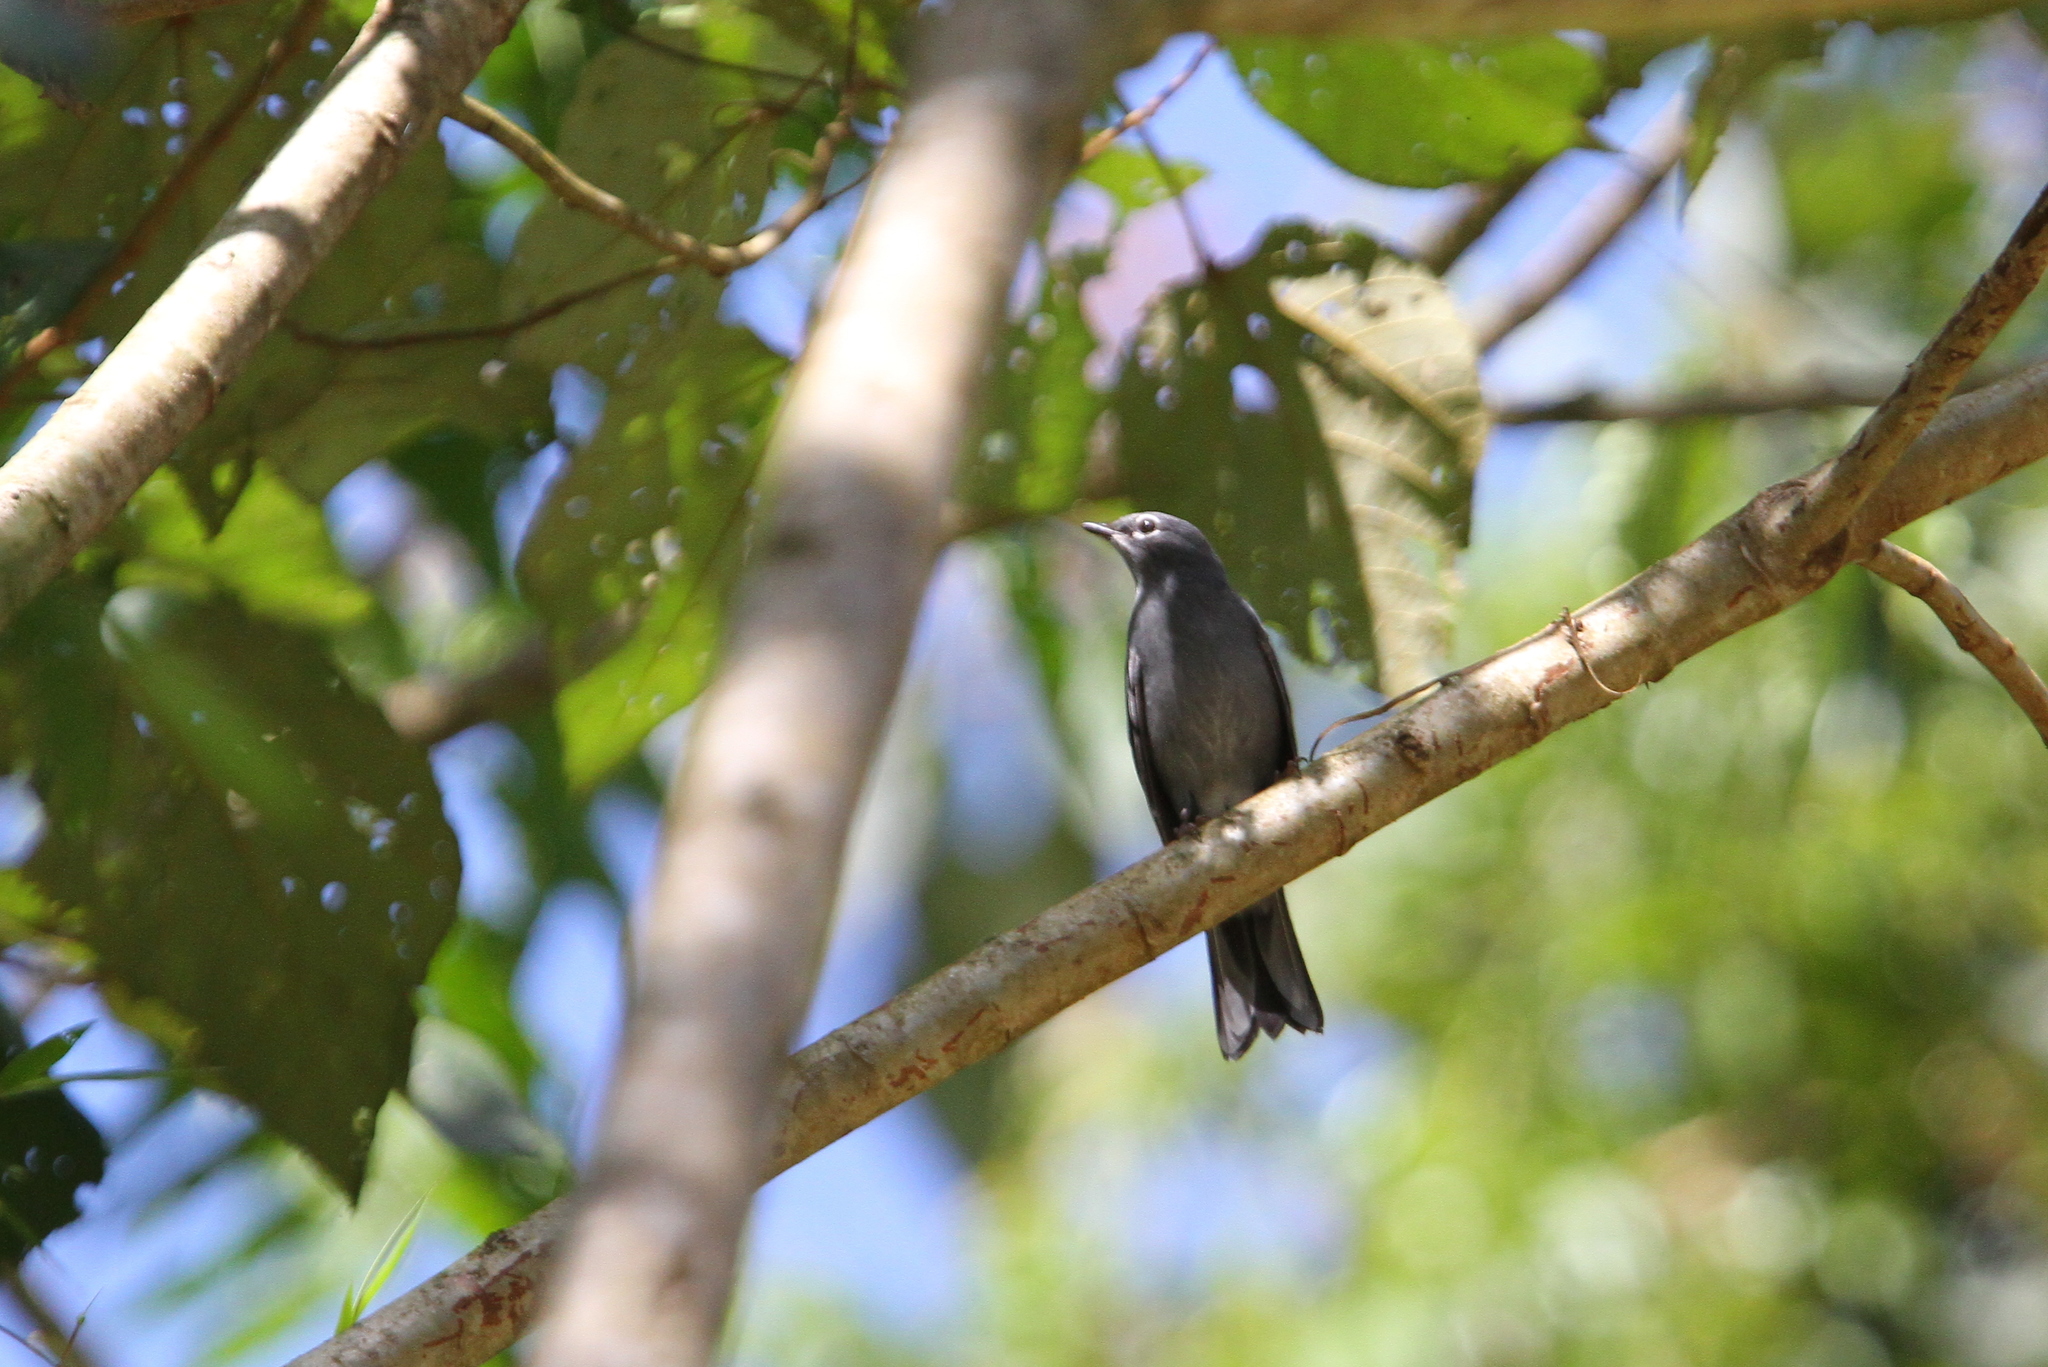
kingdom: Animalia
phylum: Chordata
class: Aves
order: Passeriformes
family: Turdidae
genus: Myadestes
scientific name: Myadestes unicolor
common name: Slate-colored solitaire
